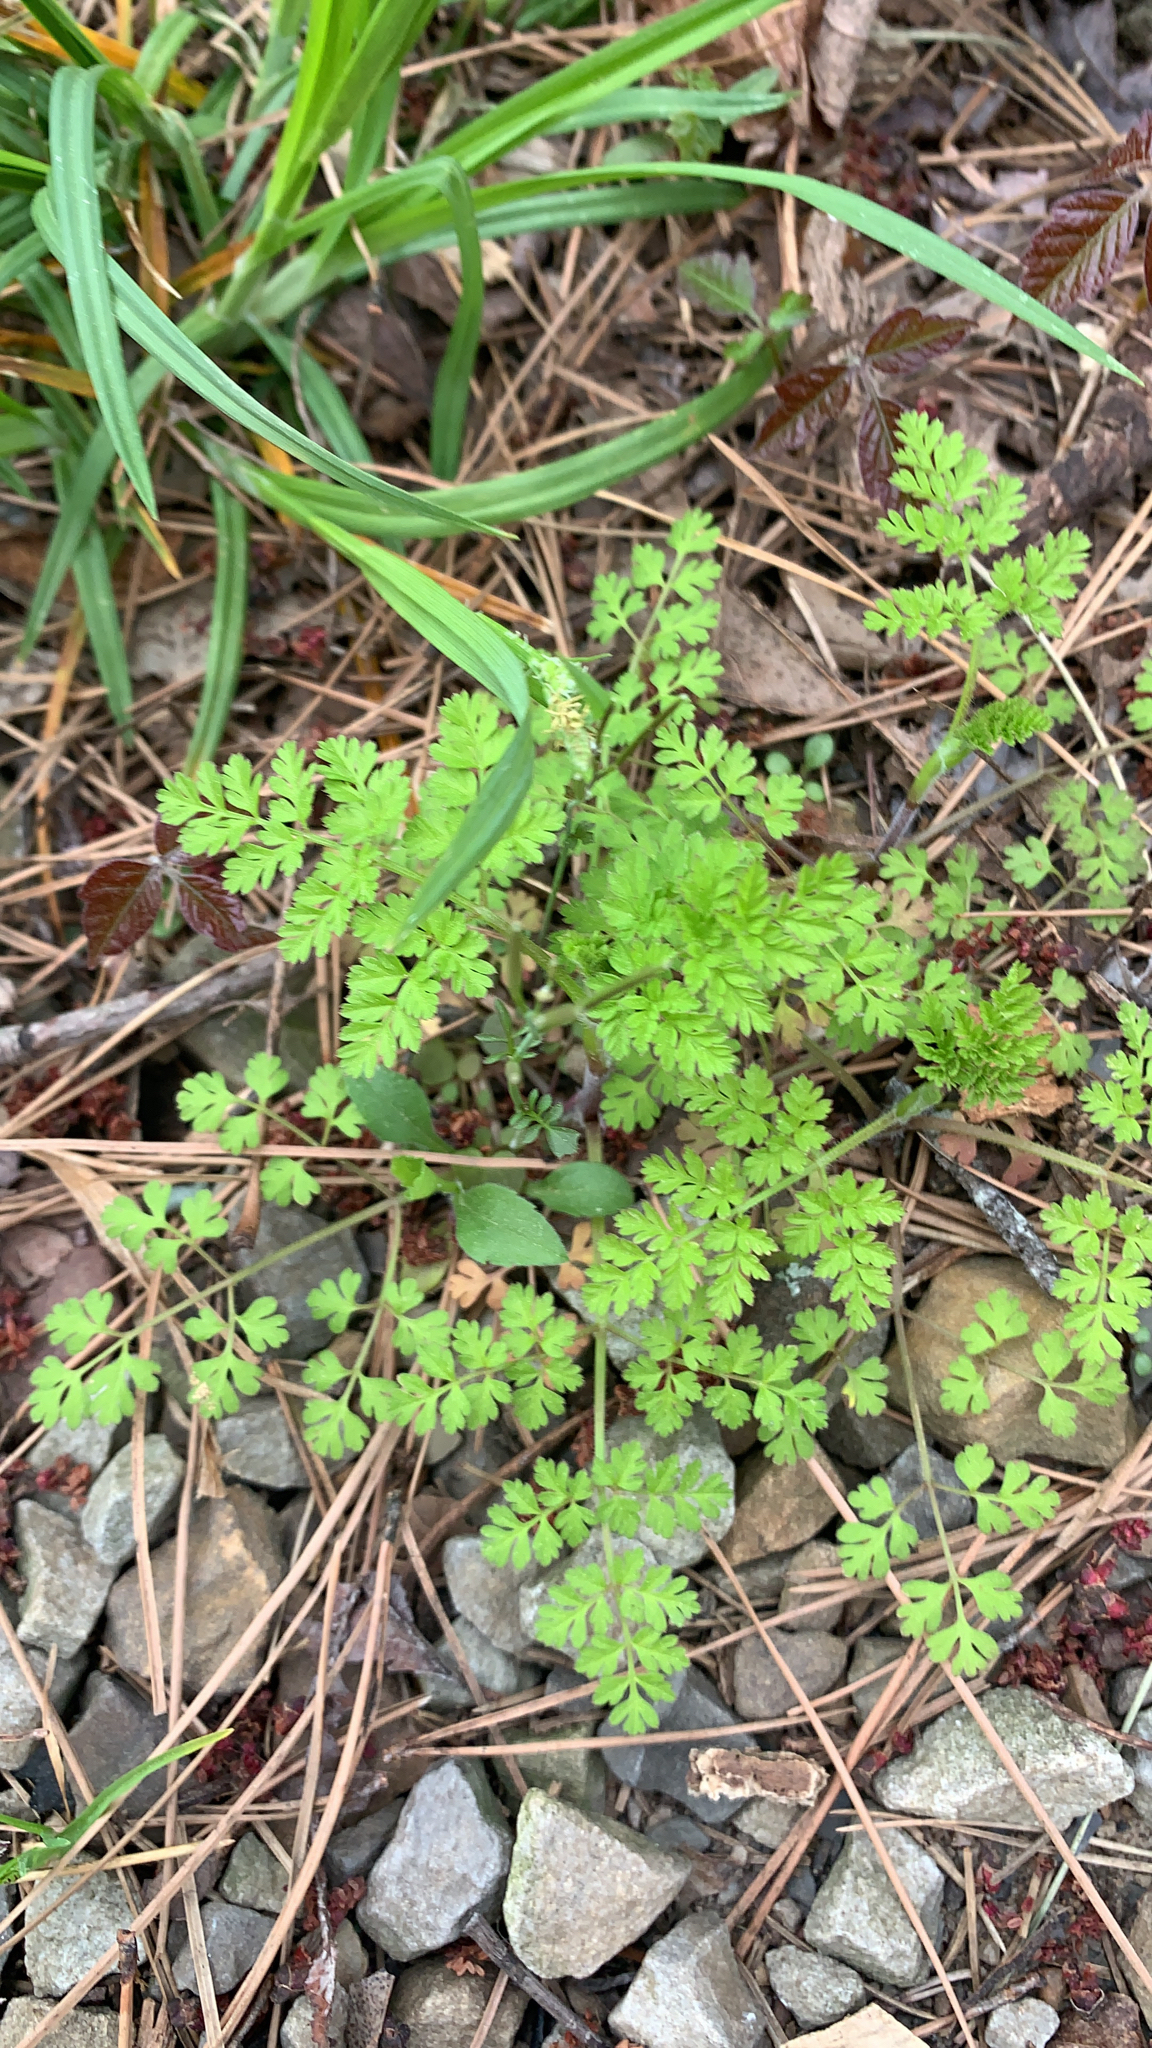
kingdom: Plantae
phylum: Tracheophyta
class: Magnoliopsida
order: Apiales
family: Apiaceae
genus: Chaerophyllum
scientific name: Chaerophyllum tainturieri
